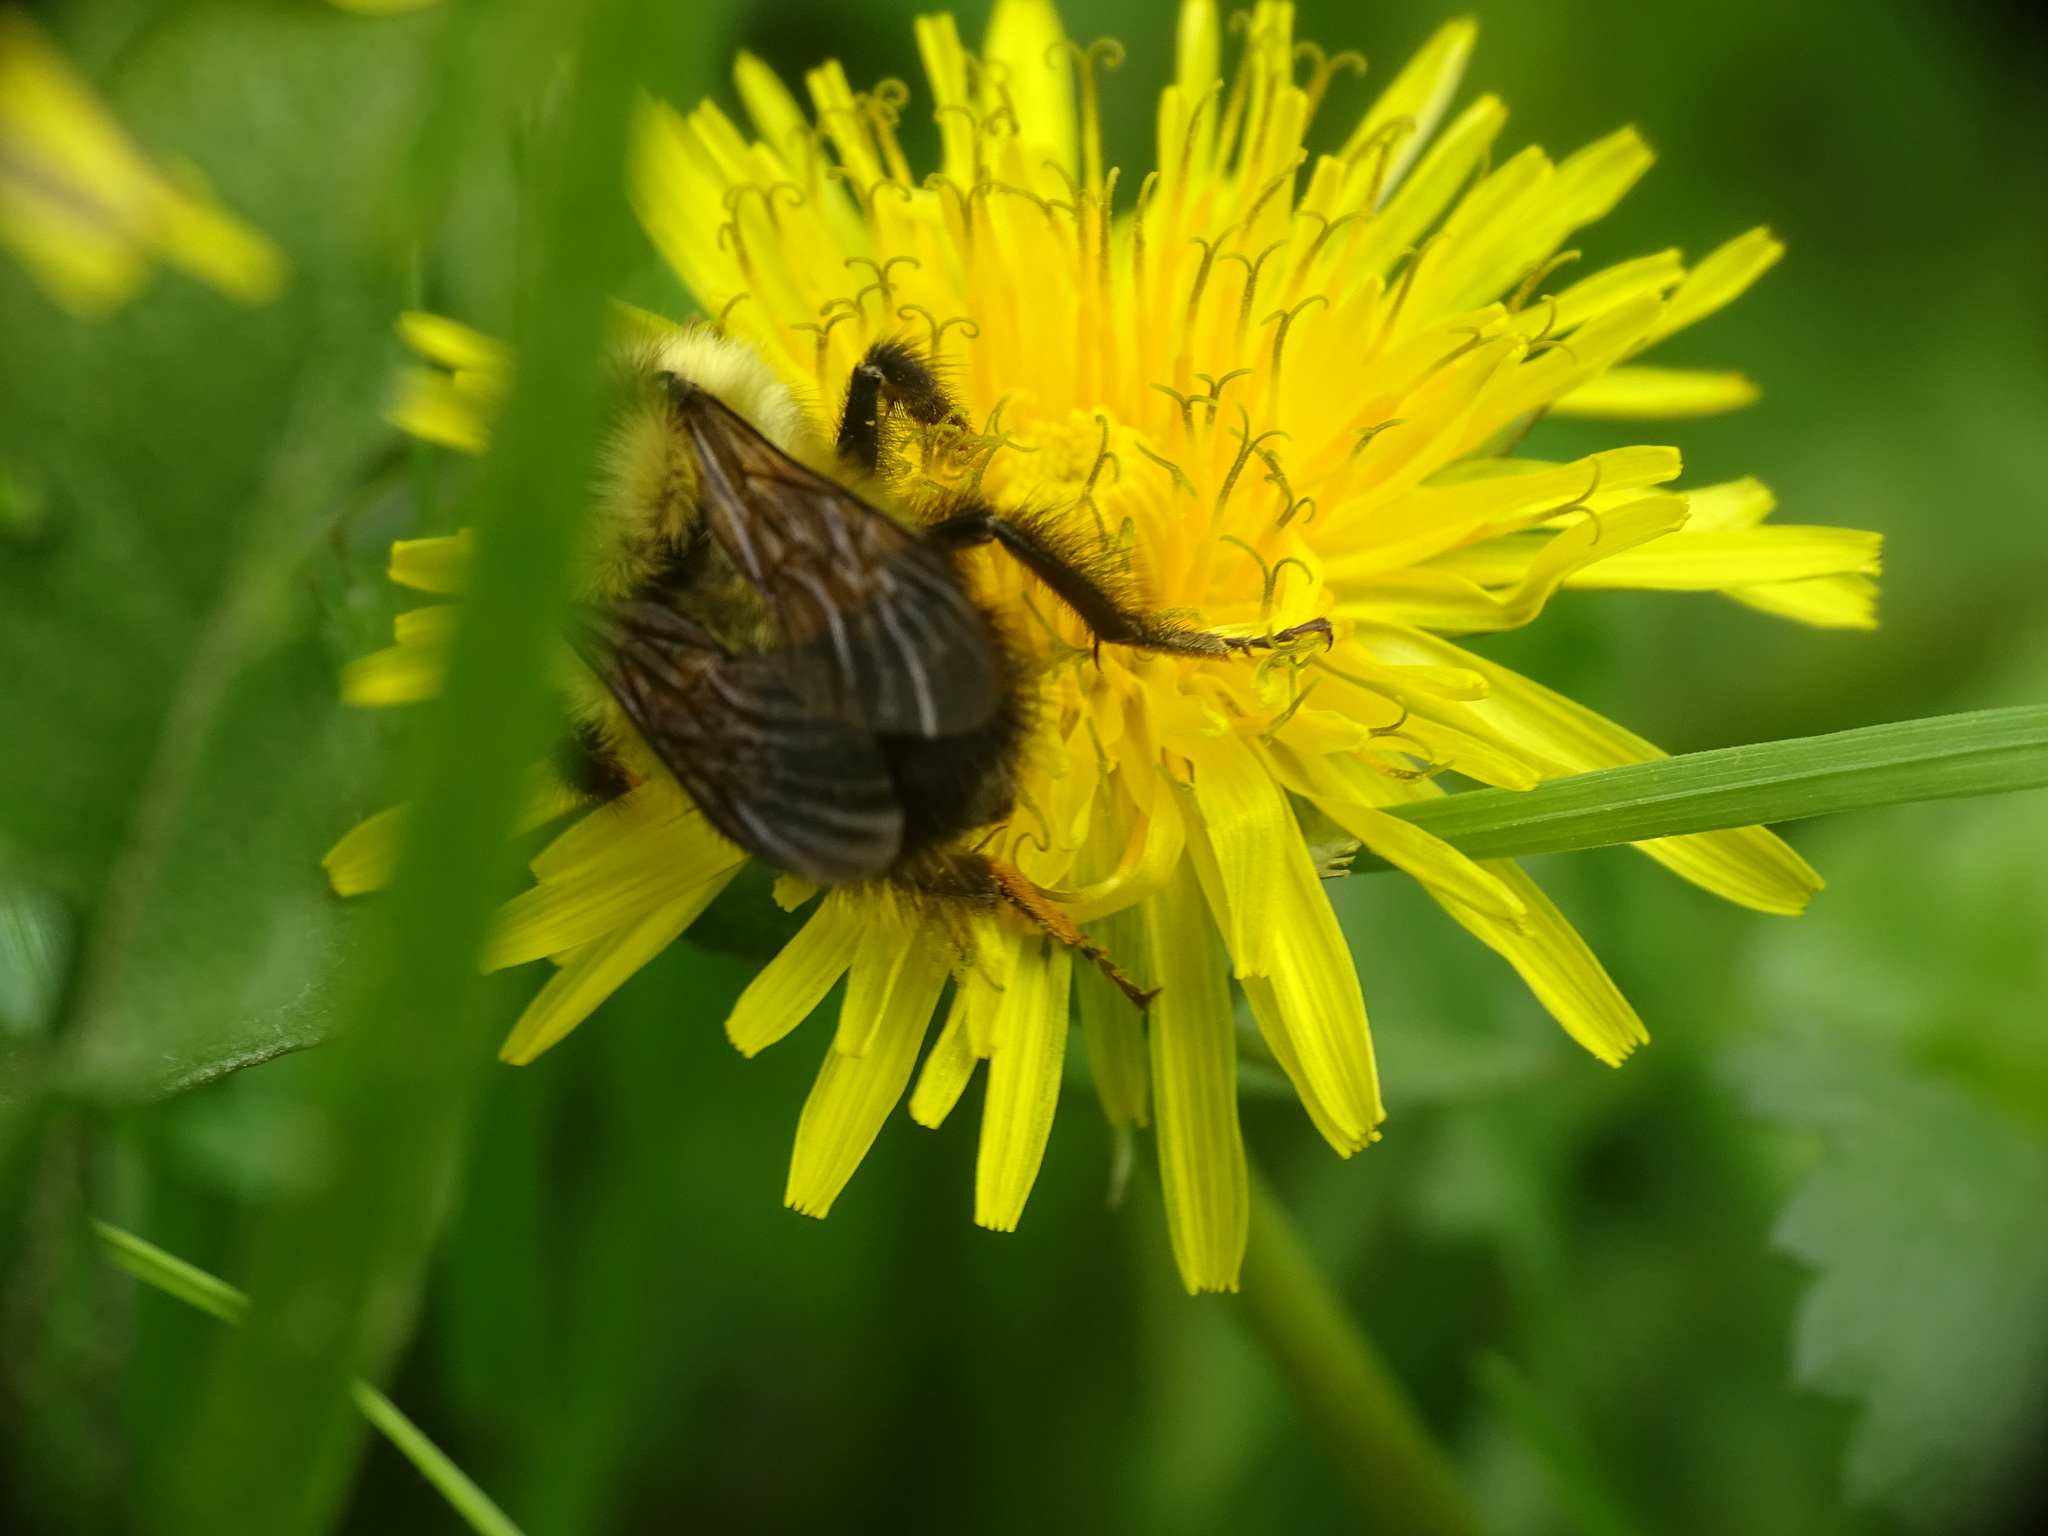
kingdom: Animalia
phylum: Arthropoda
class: Insecta
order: Hymenoptera
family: Apidae
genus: Bombus
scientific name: Bombus sandersoni
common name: Sanderson bumble bee
